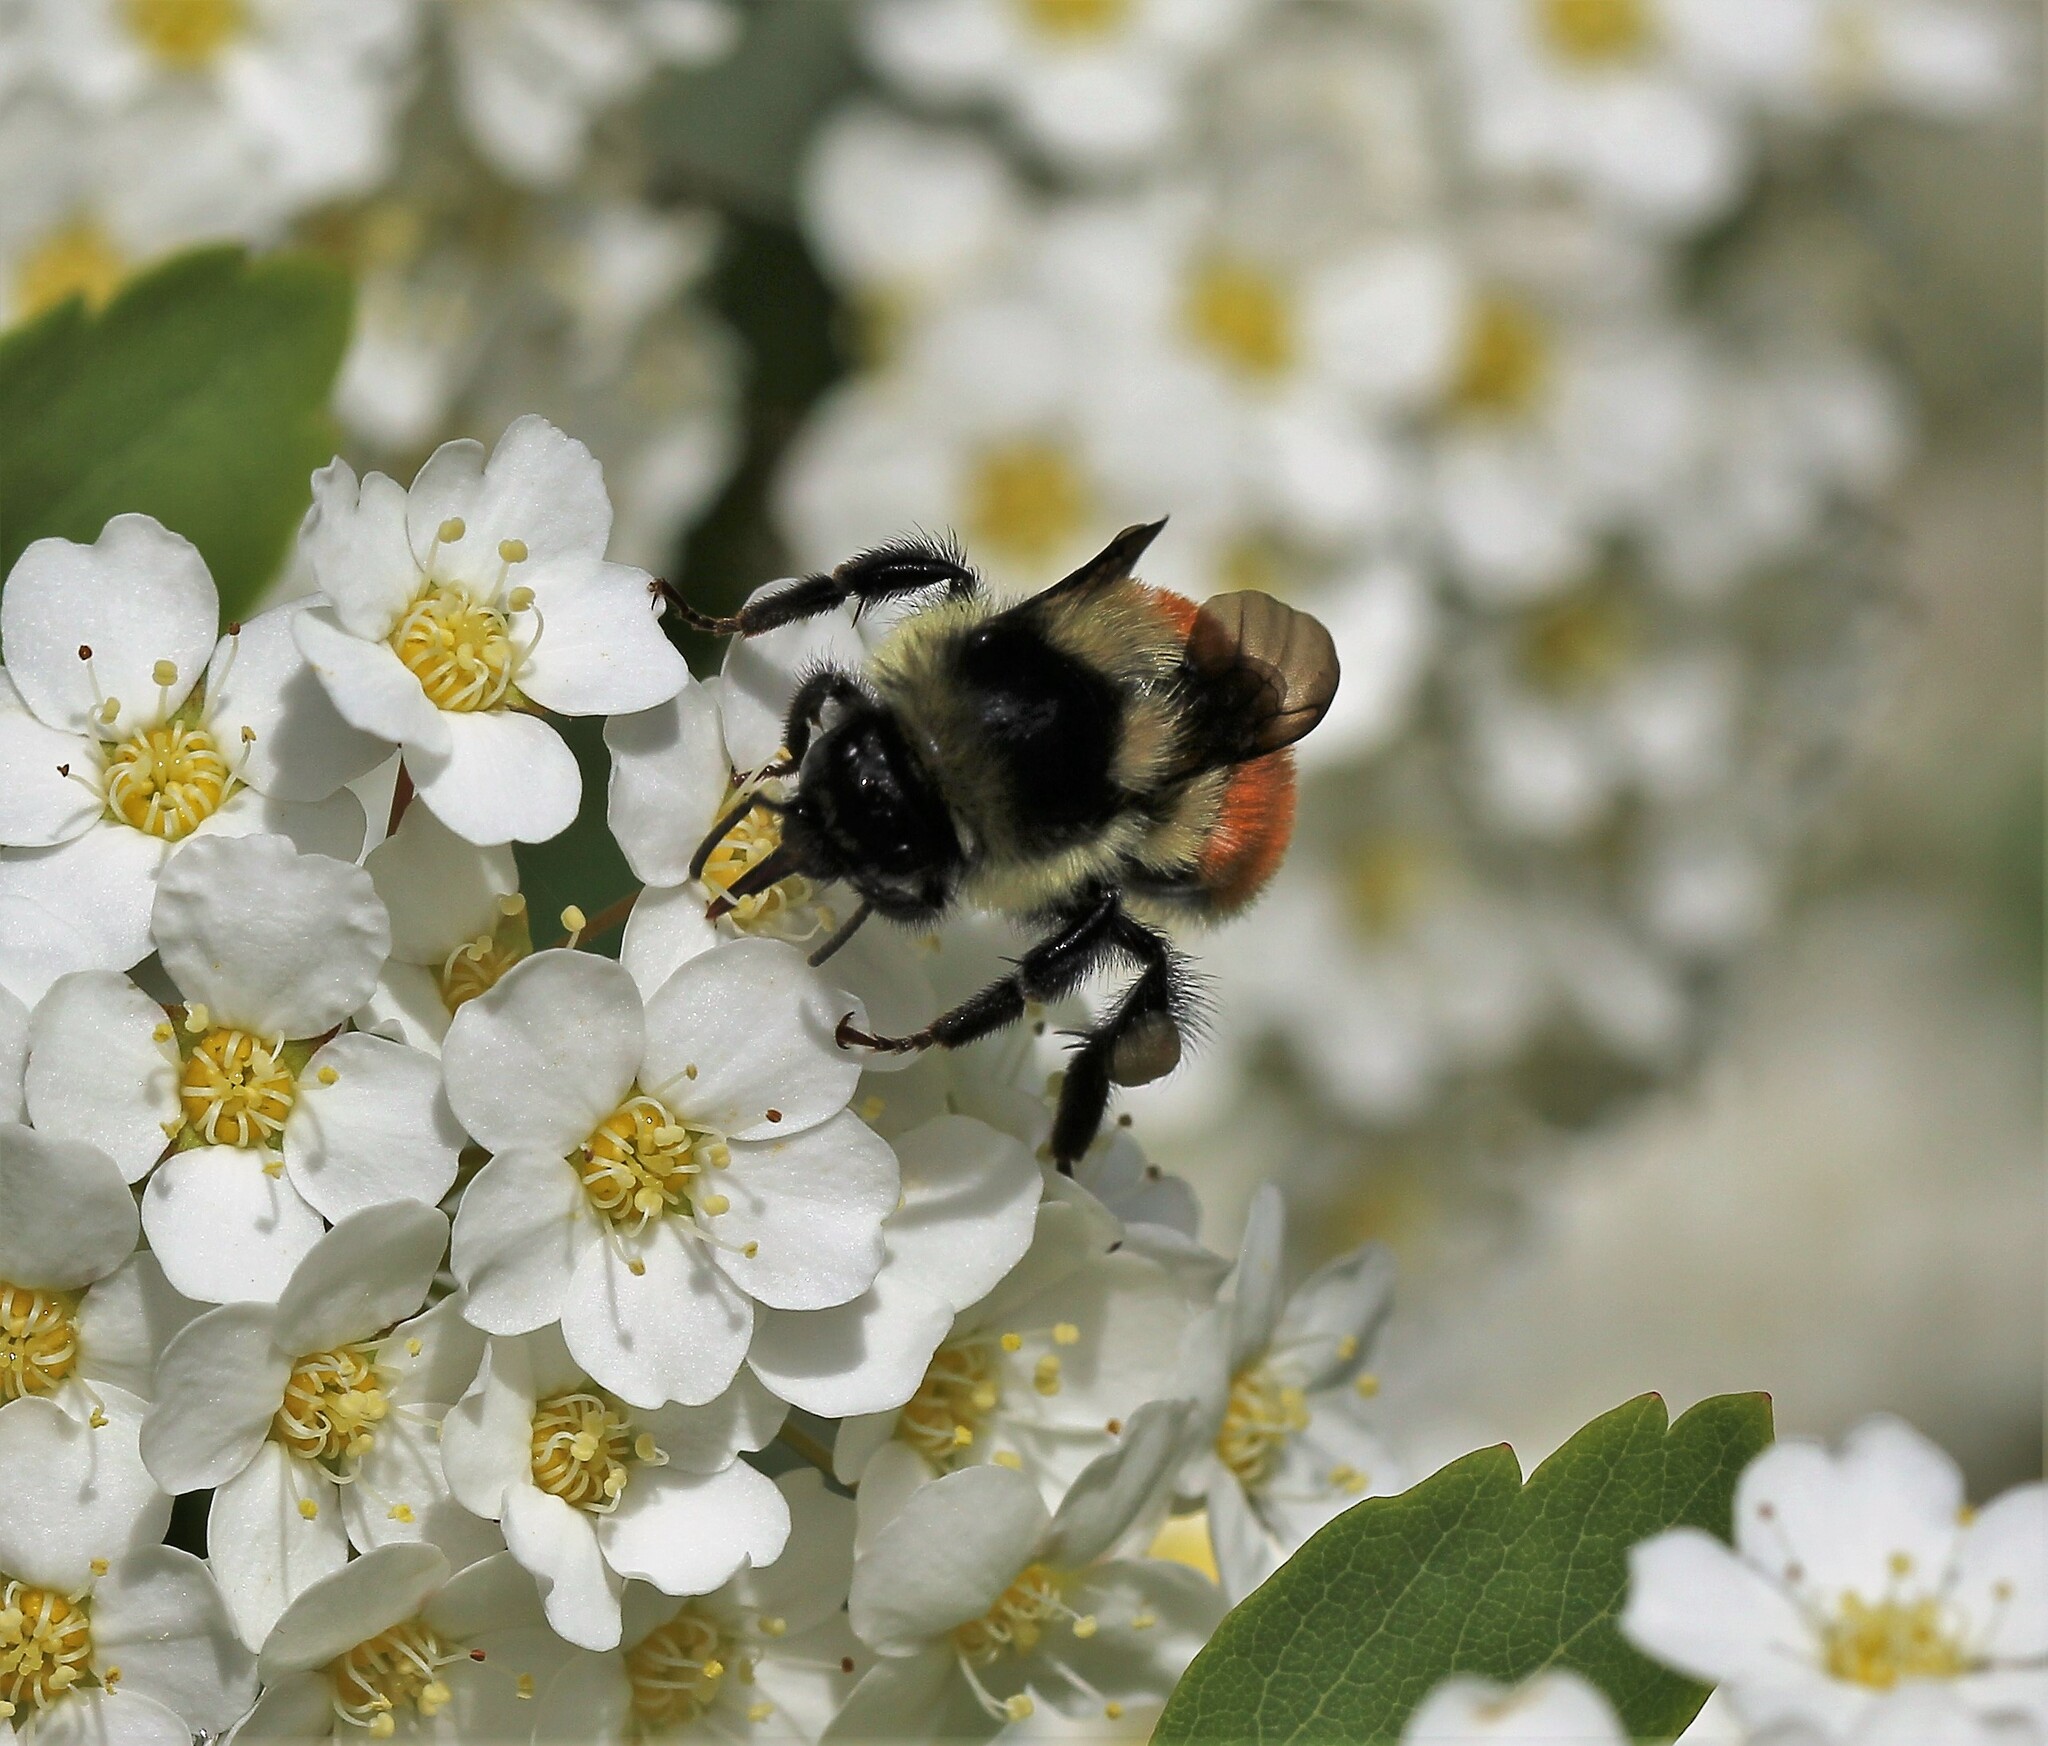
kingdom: Animalia
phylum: Arthropoda
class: Insecta
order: Hymenoptera
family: Apidae
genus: Bombus
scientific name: Bombus ternarius
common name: Tri-colored bumble bee
